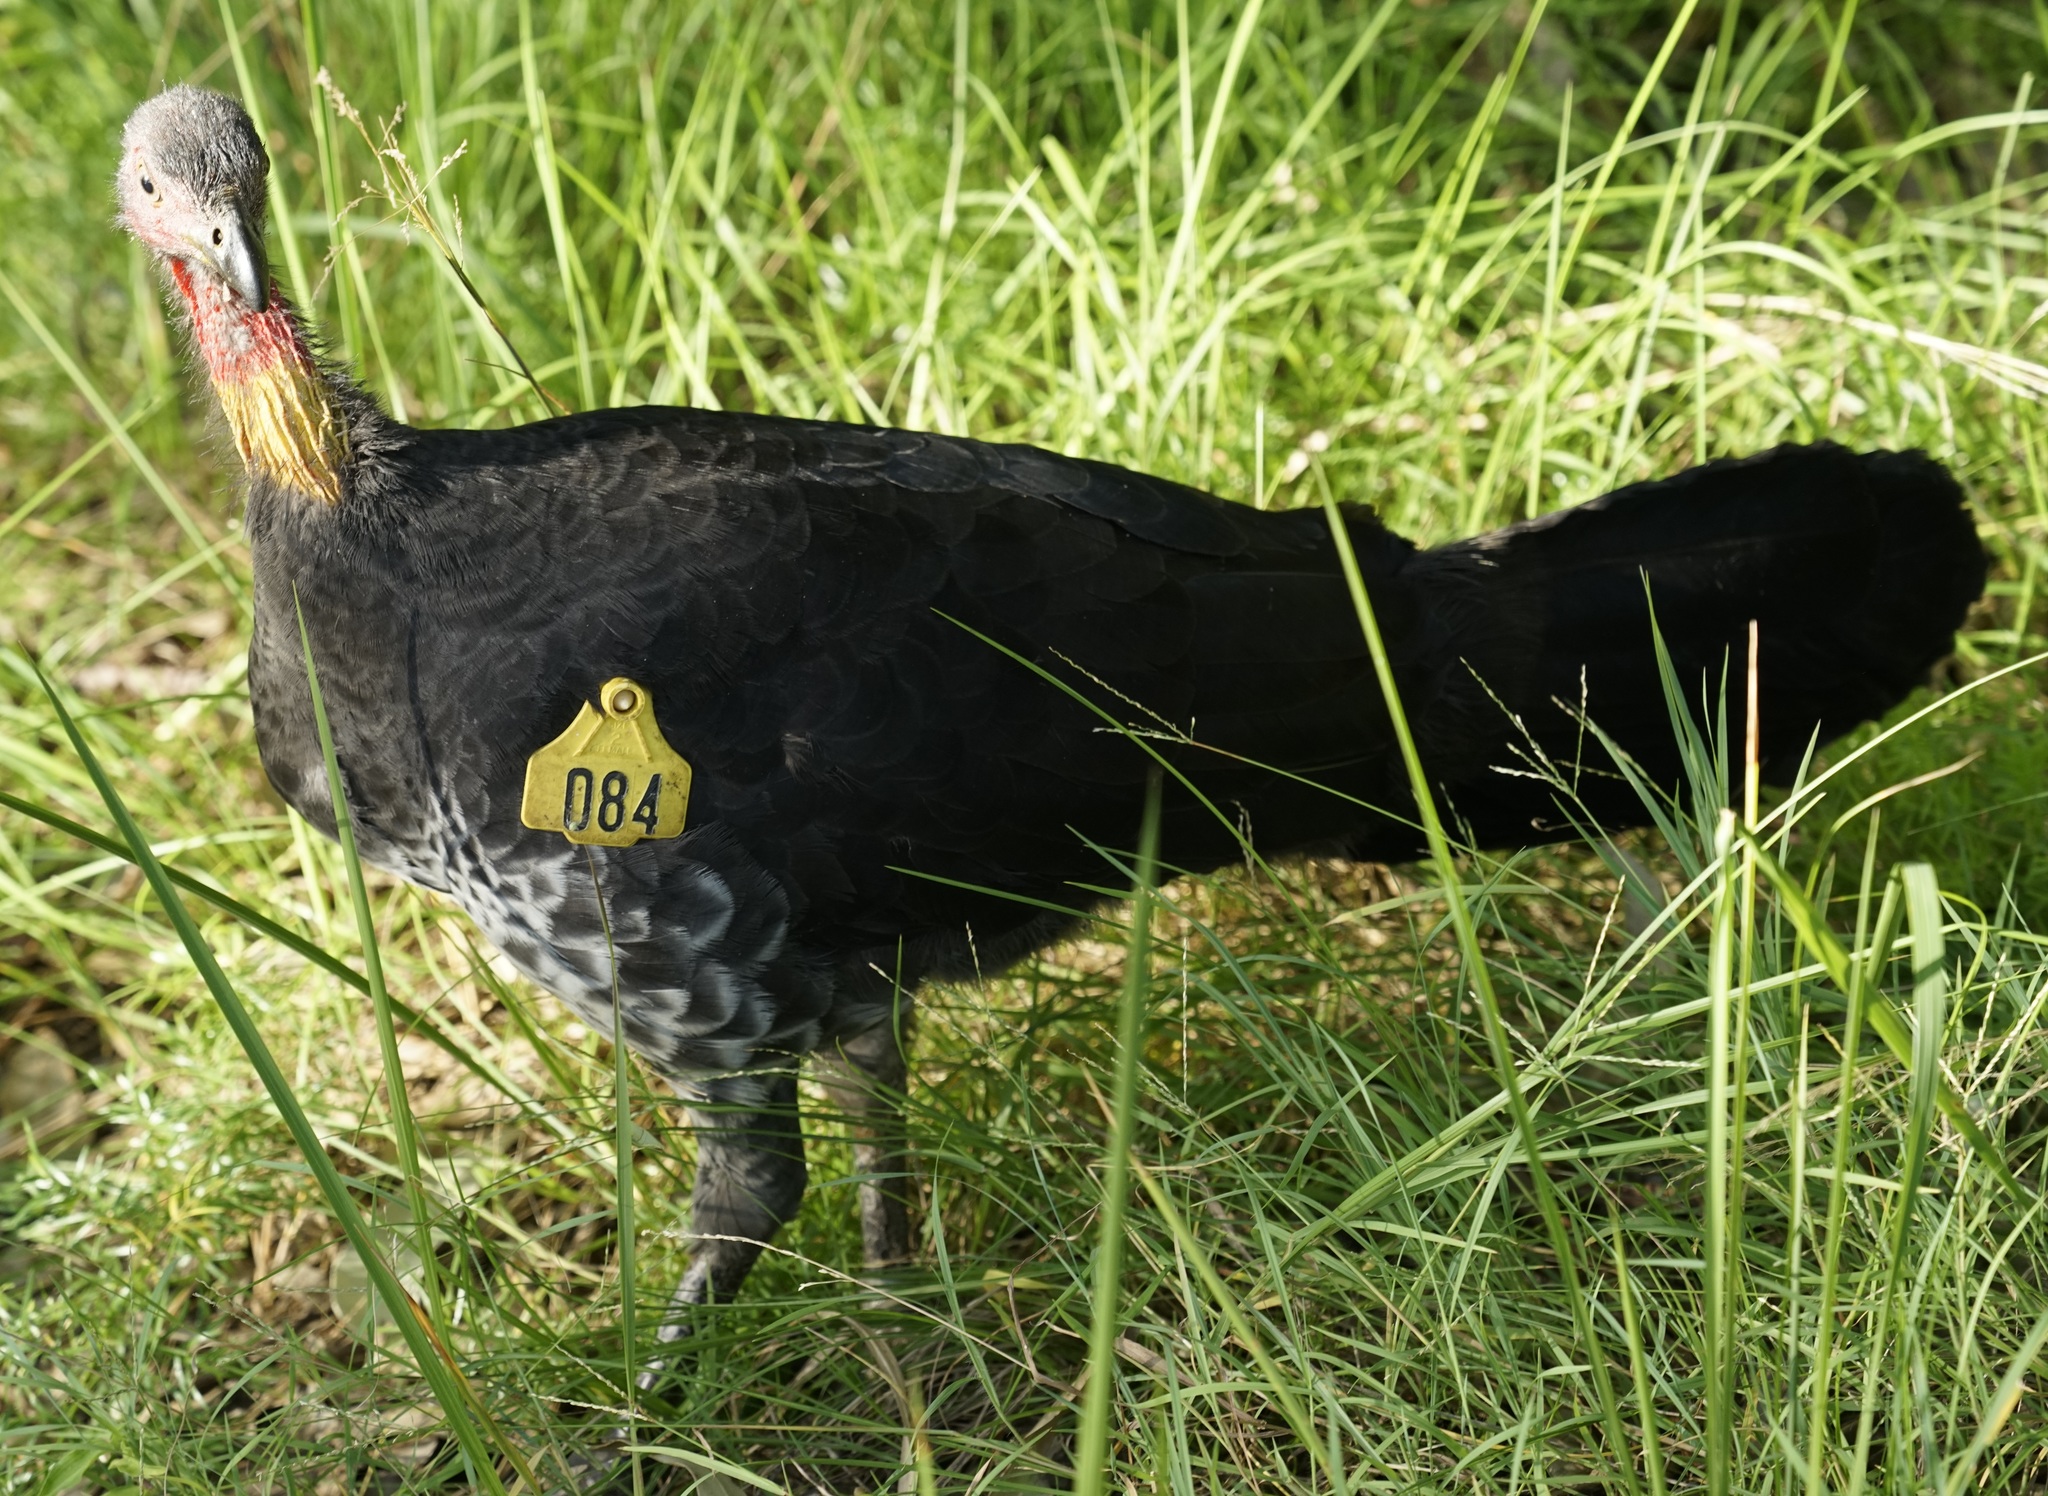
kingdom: Animalia
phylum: Chordata
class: Aves
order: Galliformes
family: Megapodiidae
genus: Alectura
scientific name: Alectura lathami
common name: Australian brushturkey
